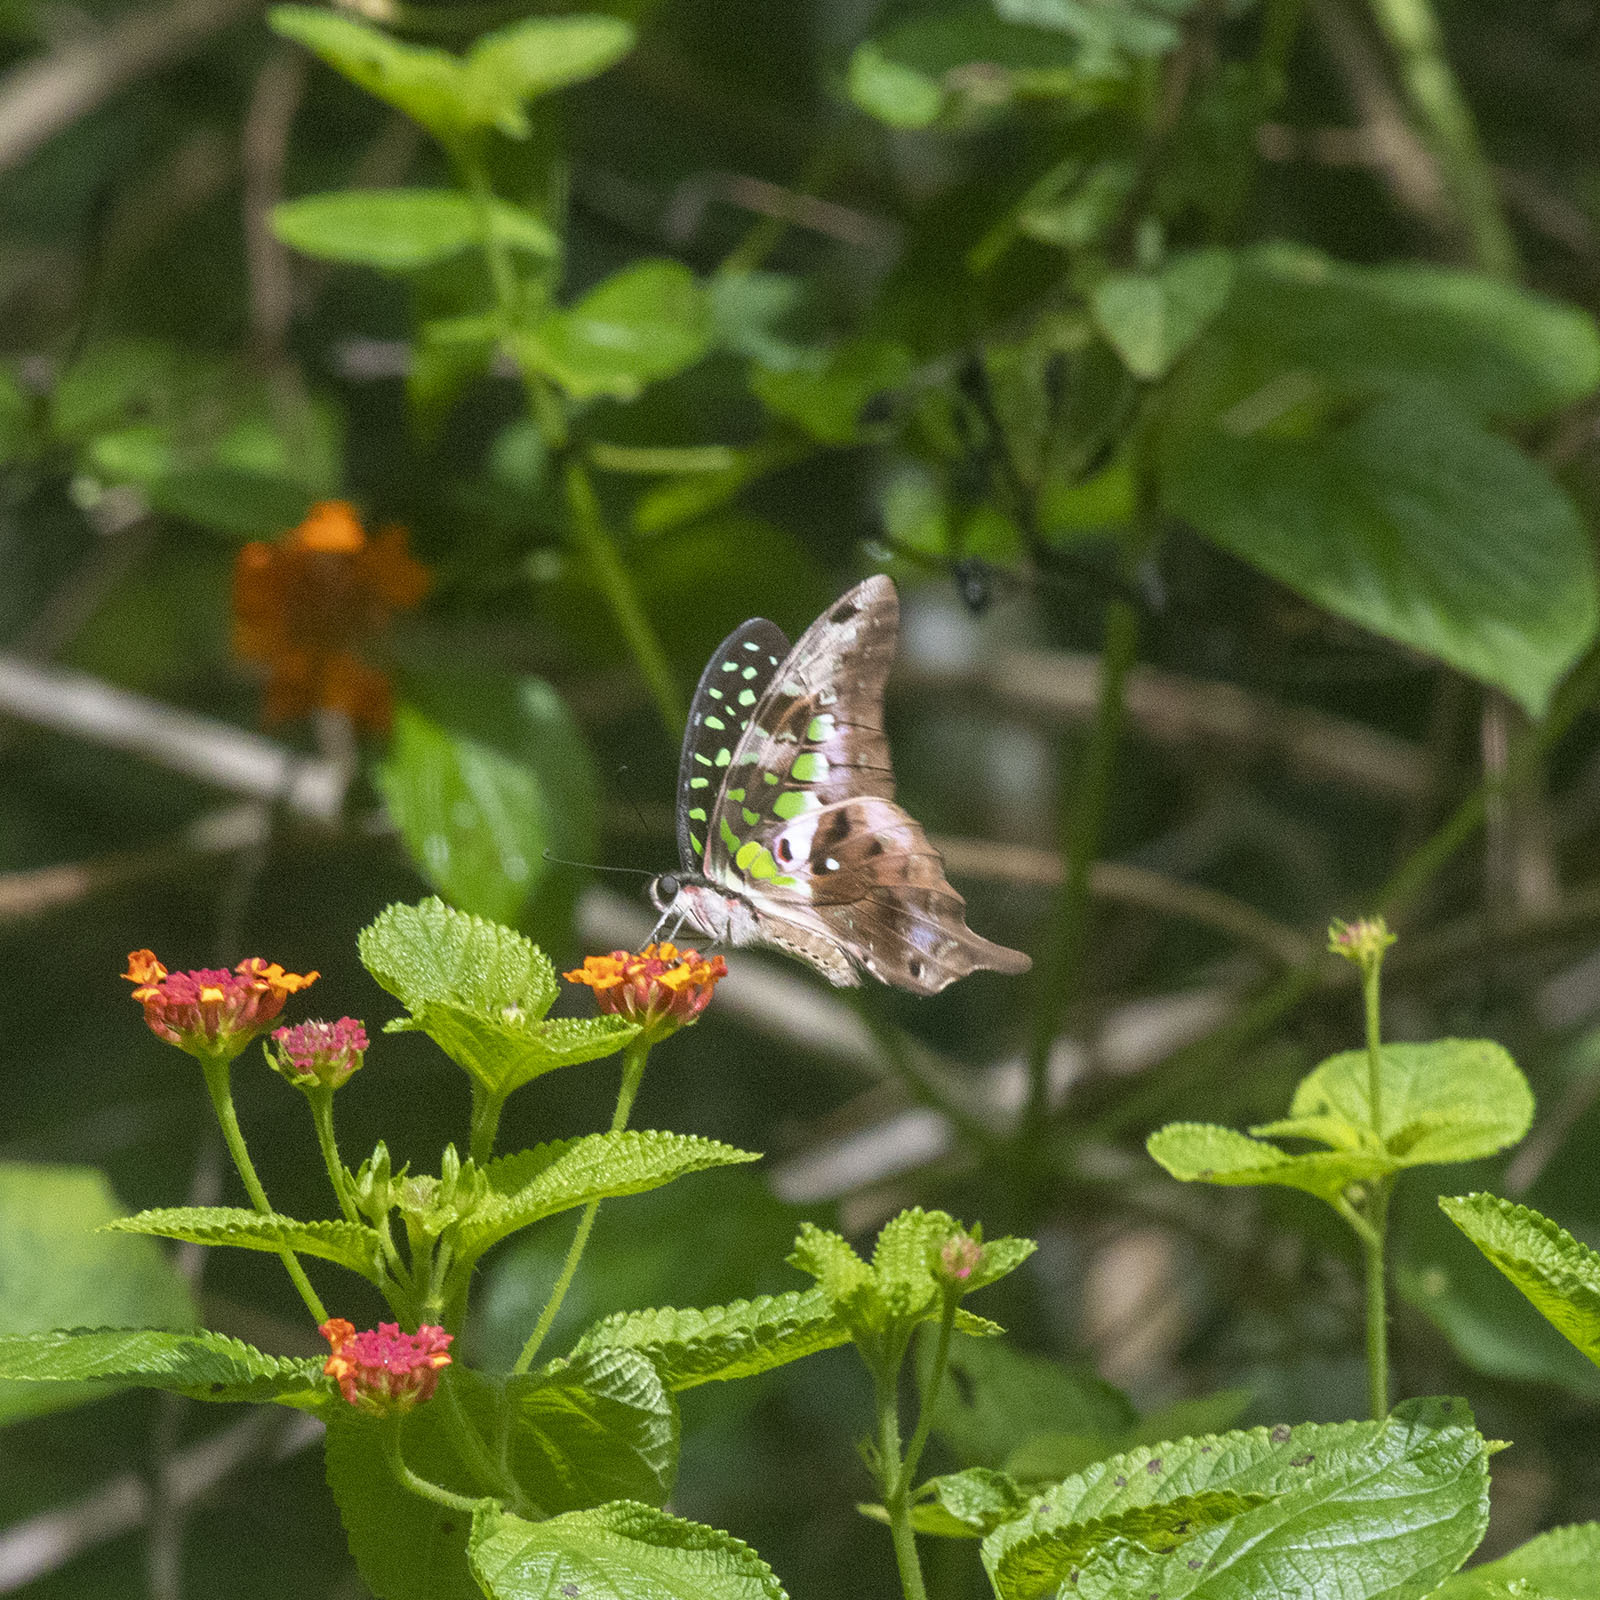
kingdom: Animalia
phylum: Arthropoda
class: Insecta
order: Lepidoptera
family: Papilionidae
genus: Graphium
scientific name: Graphium agamemnon
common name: Tailed jay
